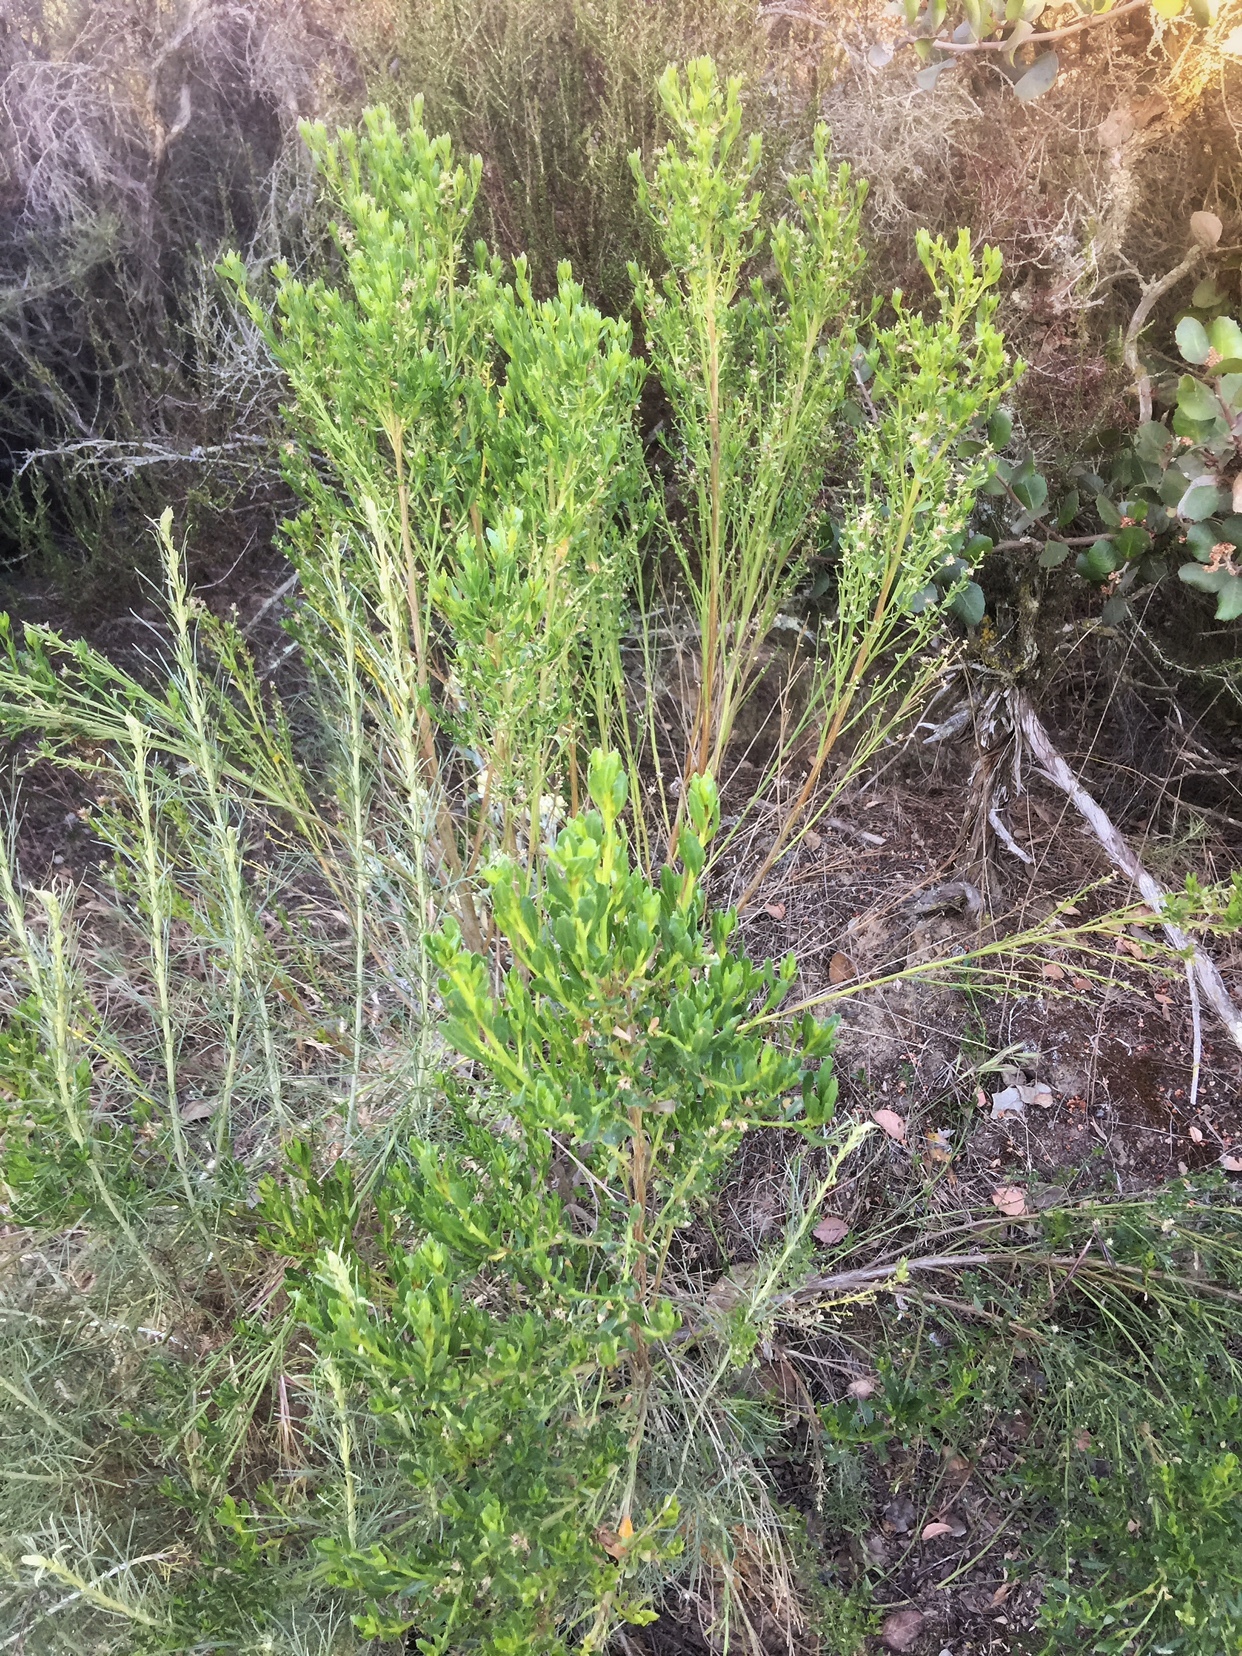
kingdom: Plantae
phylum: Tracheophyta
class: Magnoliopsida
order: Asterales
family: Asteraceae
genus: Baccharis
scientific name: Baccharis pilularis
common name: Coyotebrush
